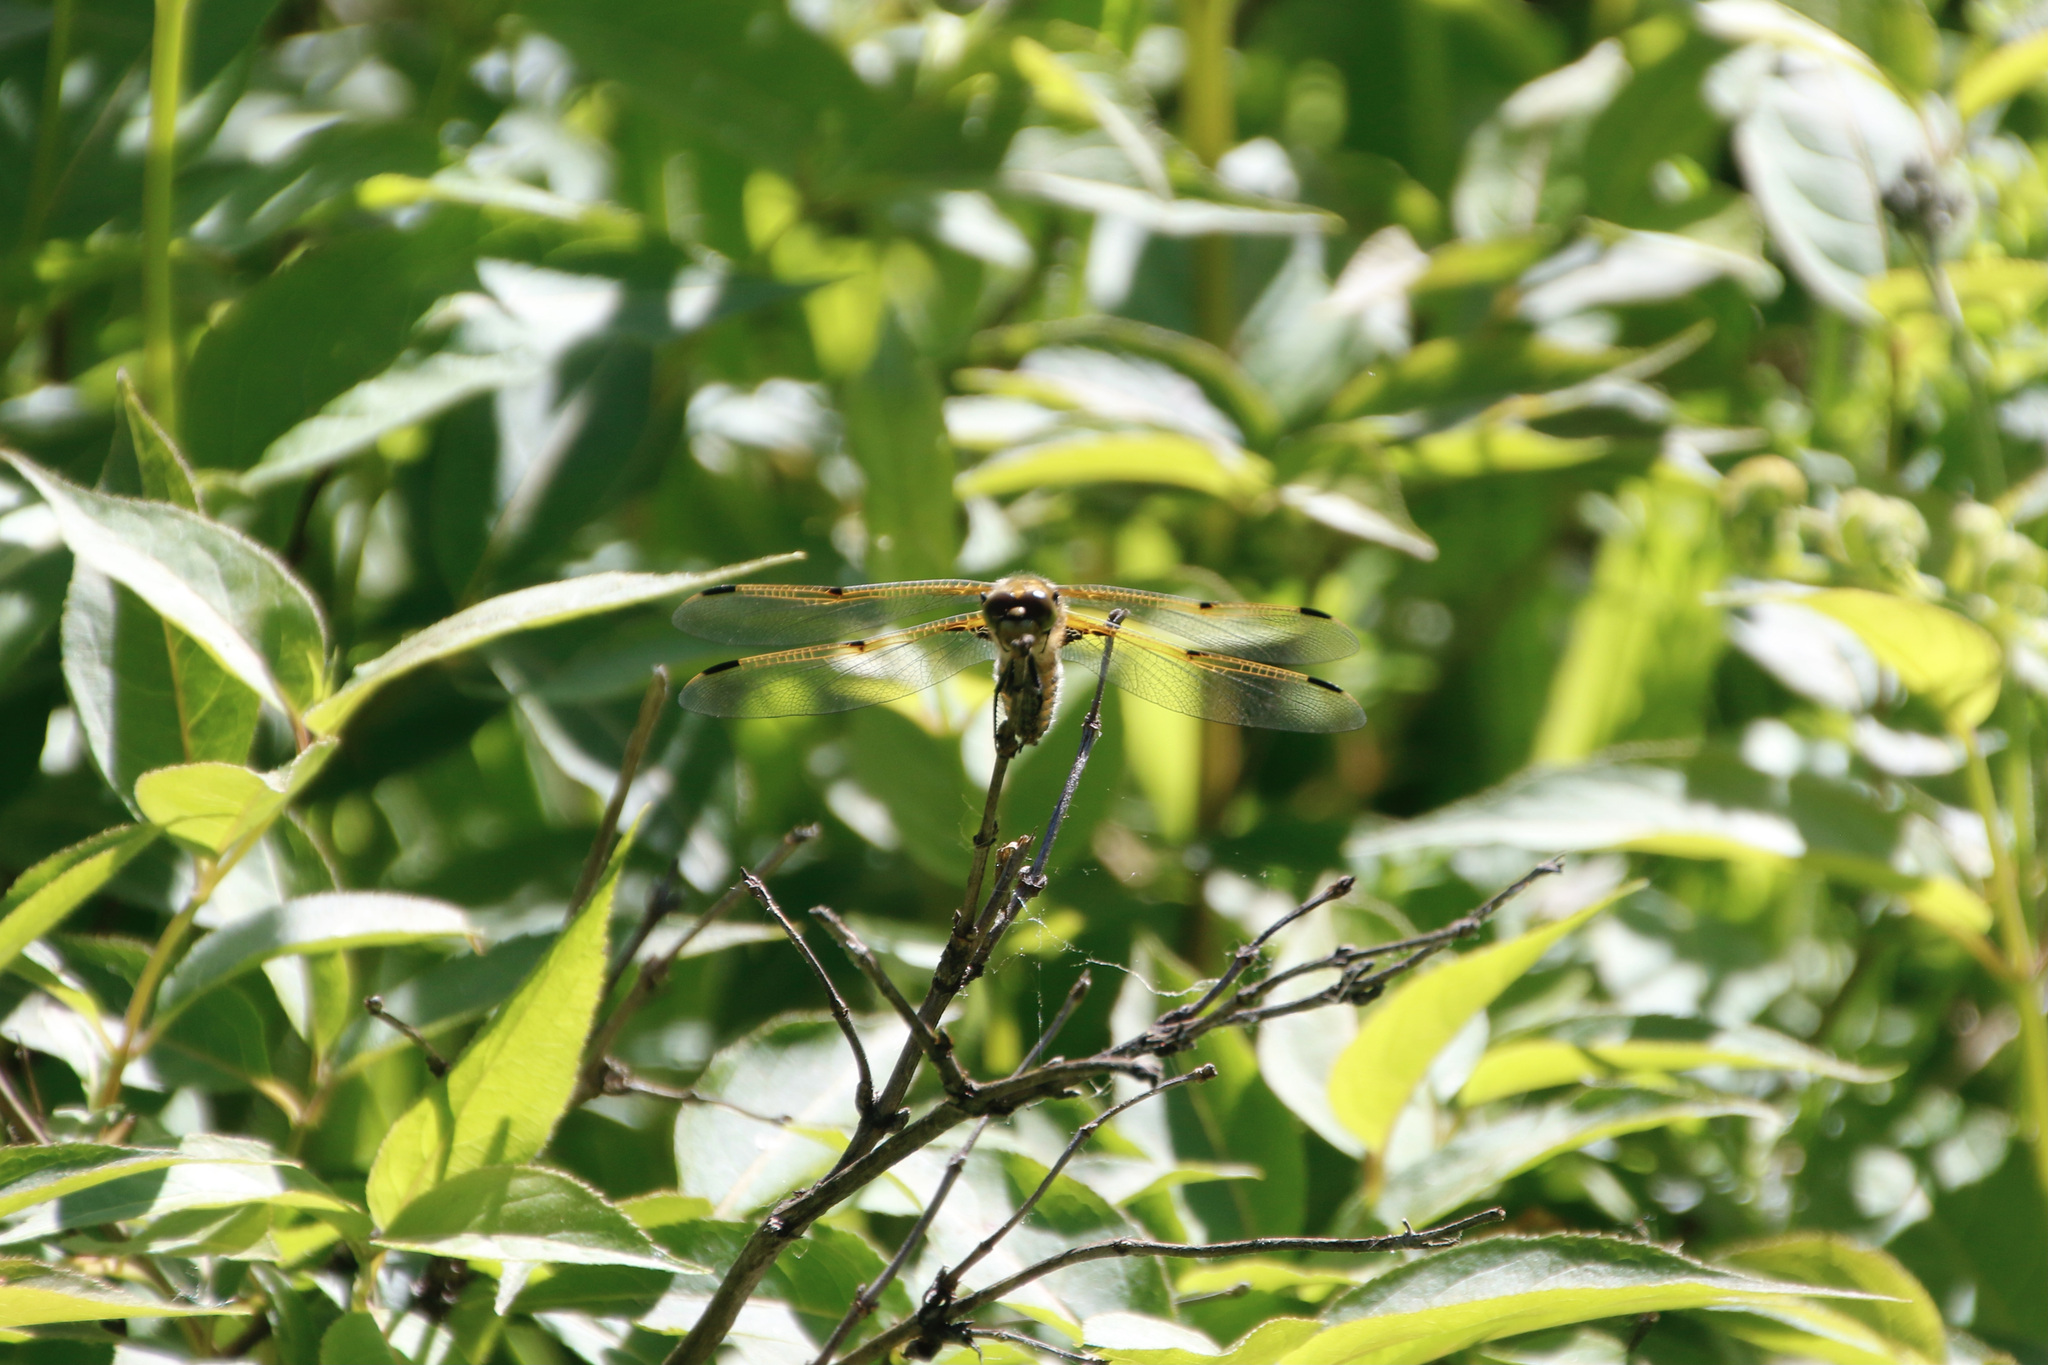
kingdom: Animalia
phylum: Arthropoda
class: Insecta
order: Odonata
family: Libellulidae
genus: Libellula
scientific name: Libellula quadrimaculata
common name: Four-spotted chaser
